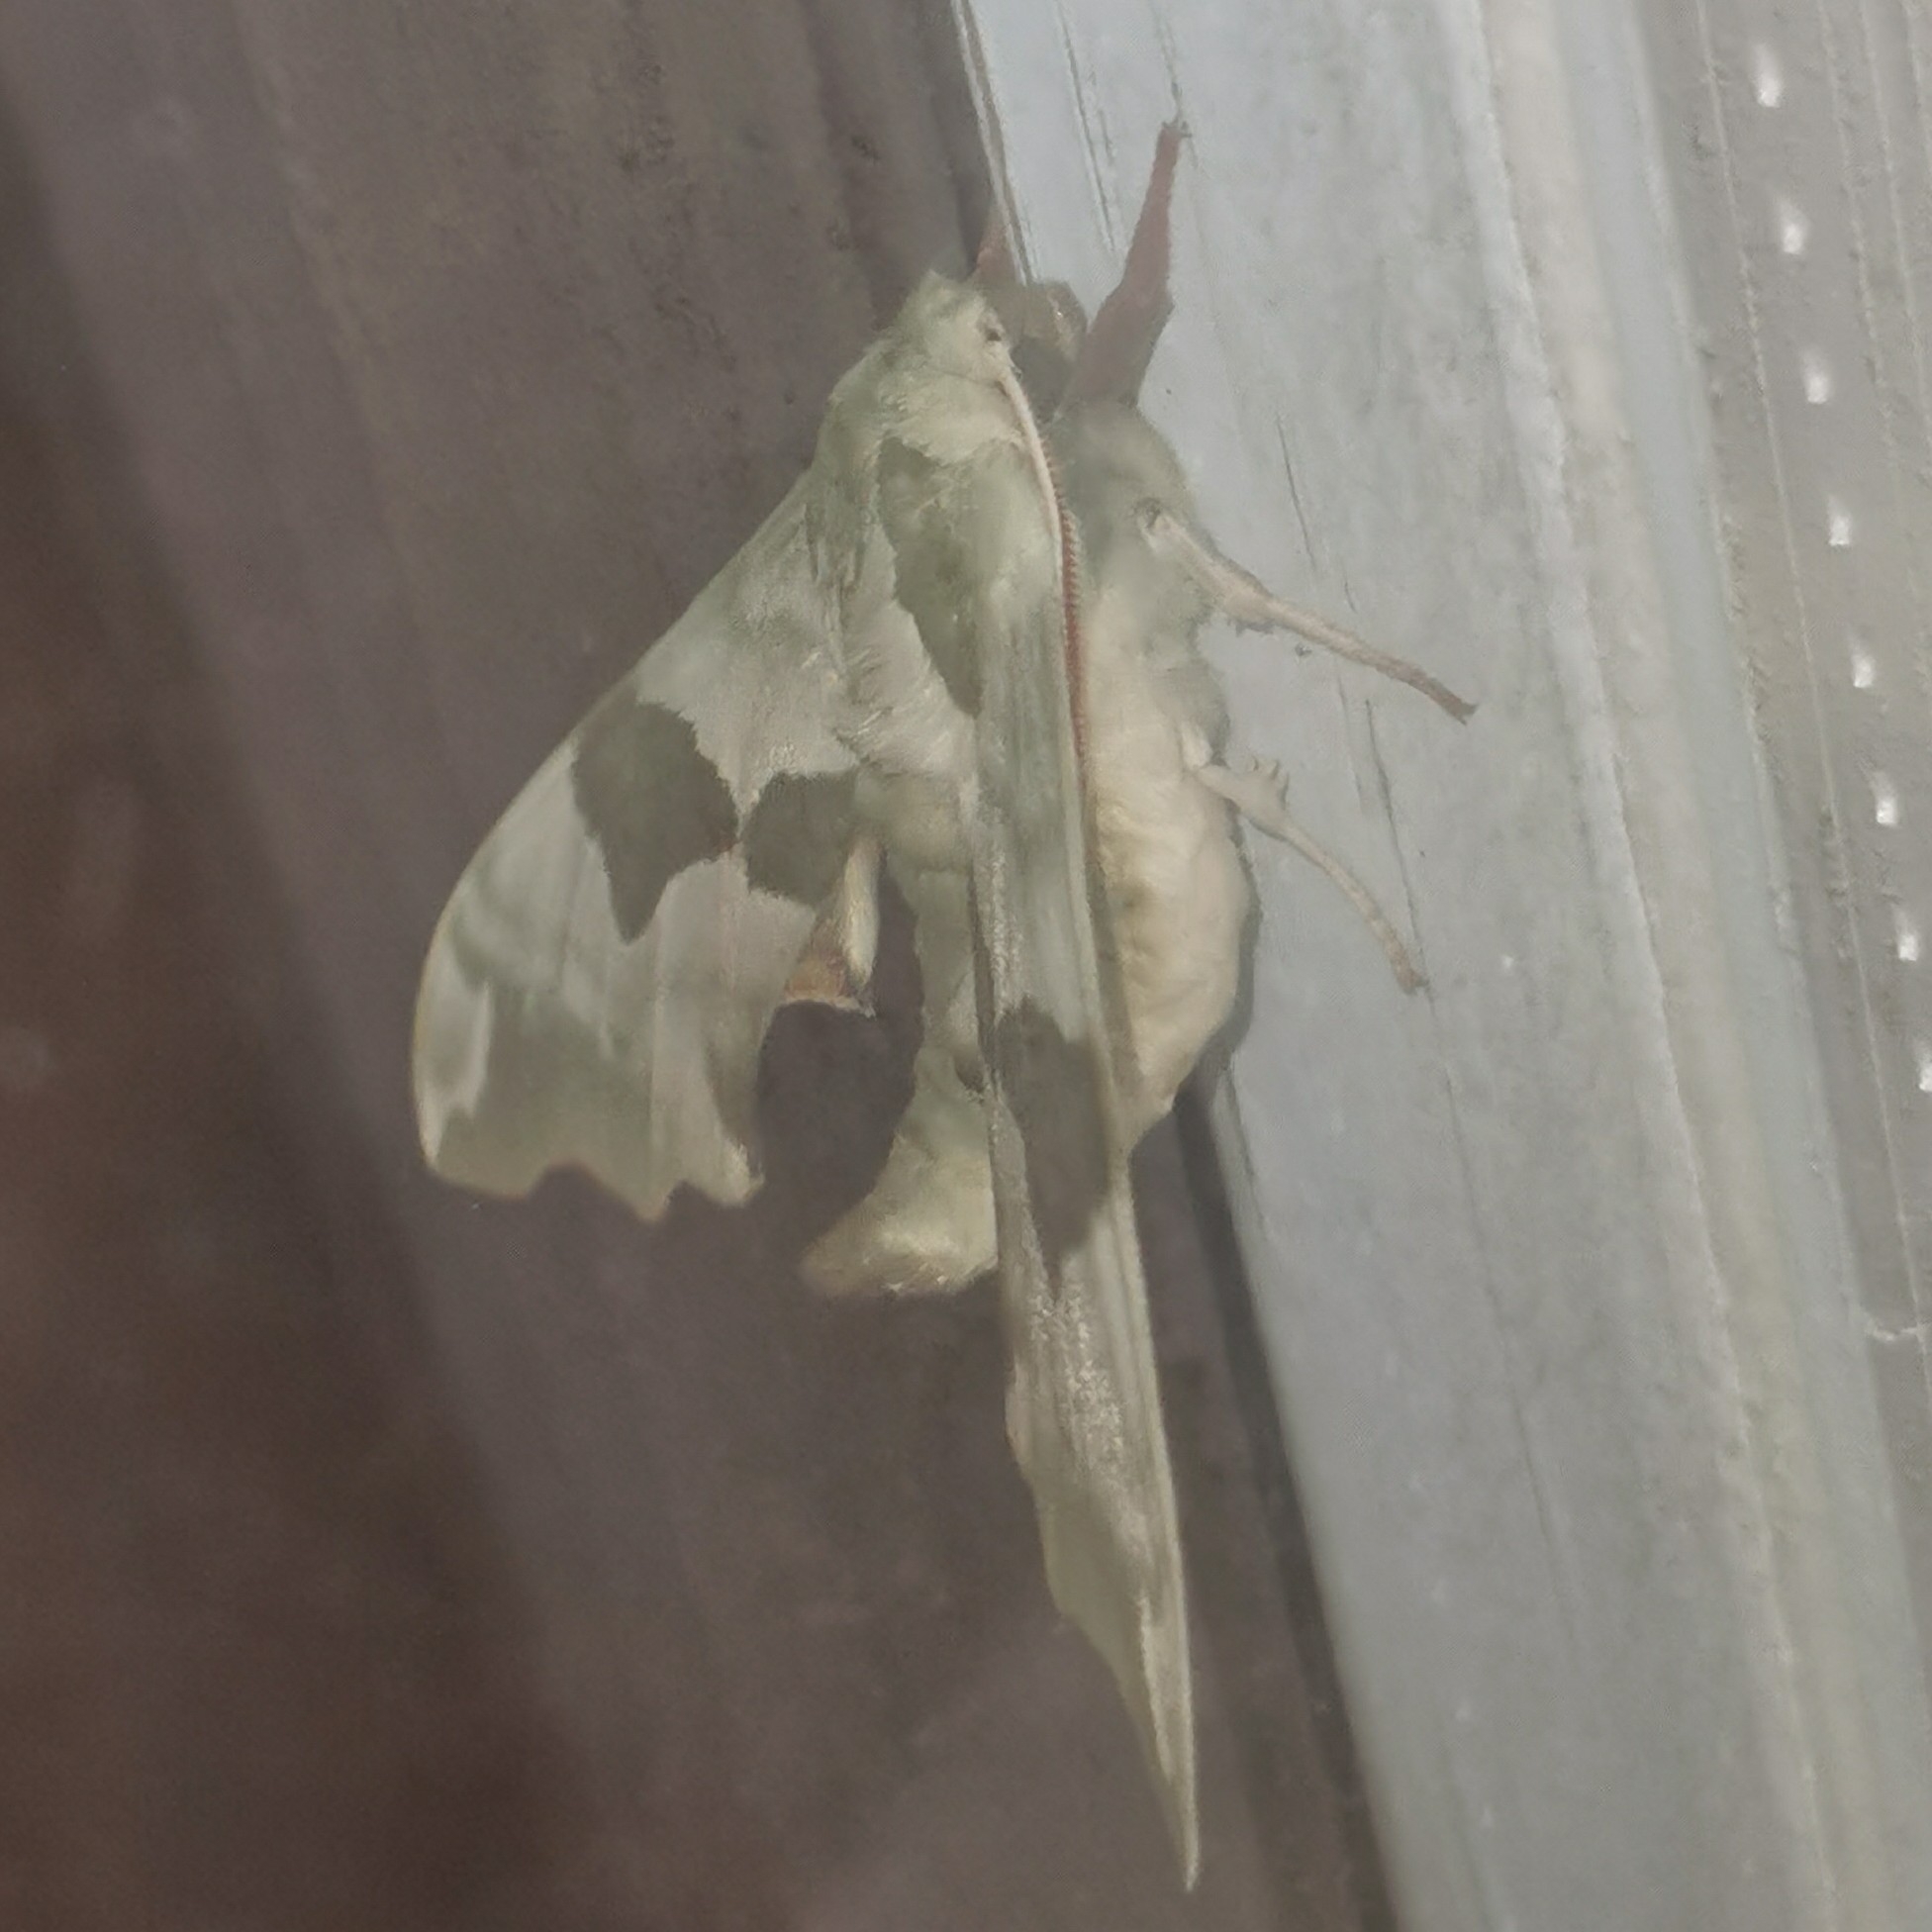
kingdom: Animalia
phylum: Arthropoda
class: Insecta
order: Lepidoptera
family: Sphingidae
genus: Mimas
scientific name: Mimas tiliae
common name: Lime hawk-moth
